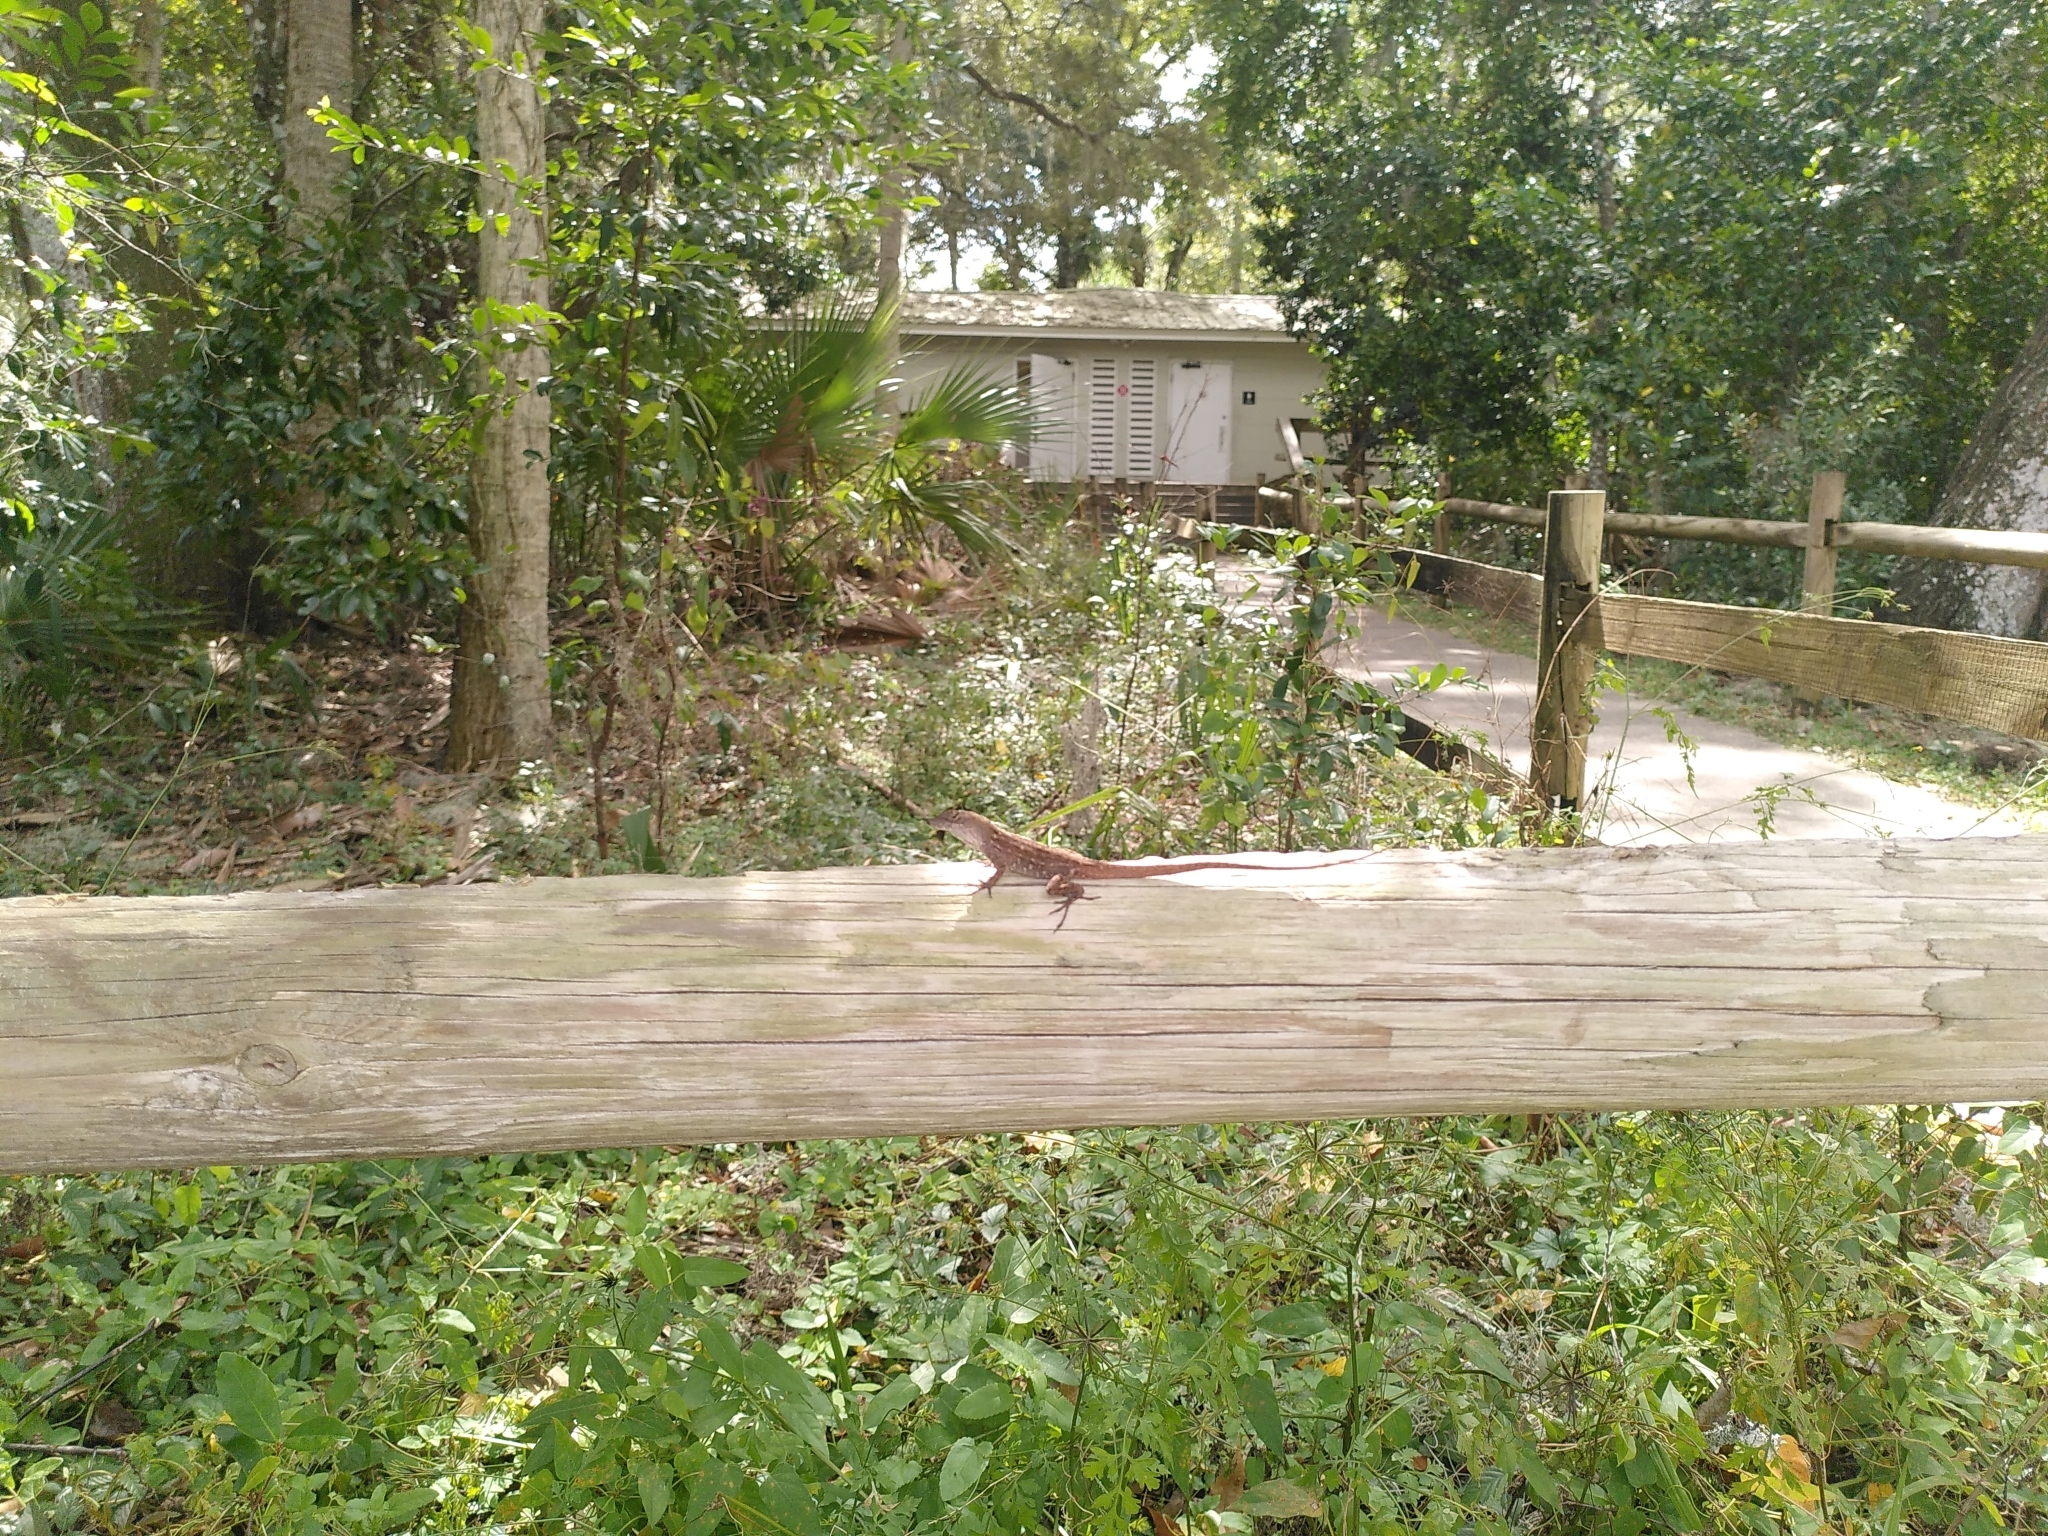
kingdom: Animalia
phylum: Chordata
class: Squamata
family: Dactyloidae
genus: Anolis
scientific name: Anolis sagrei
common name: Brown anole
